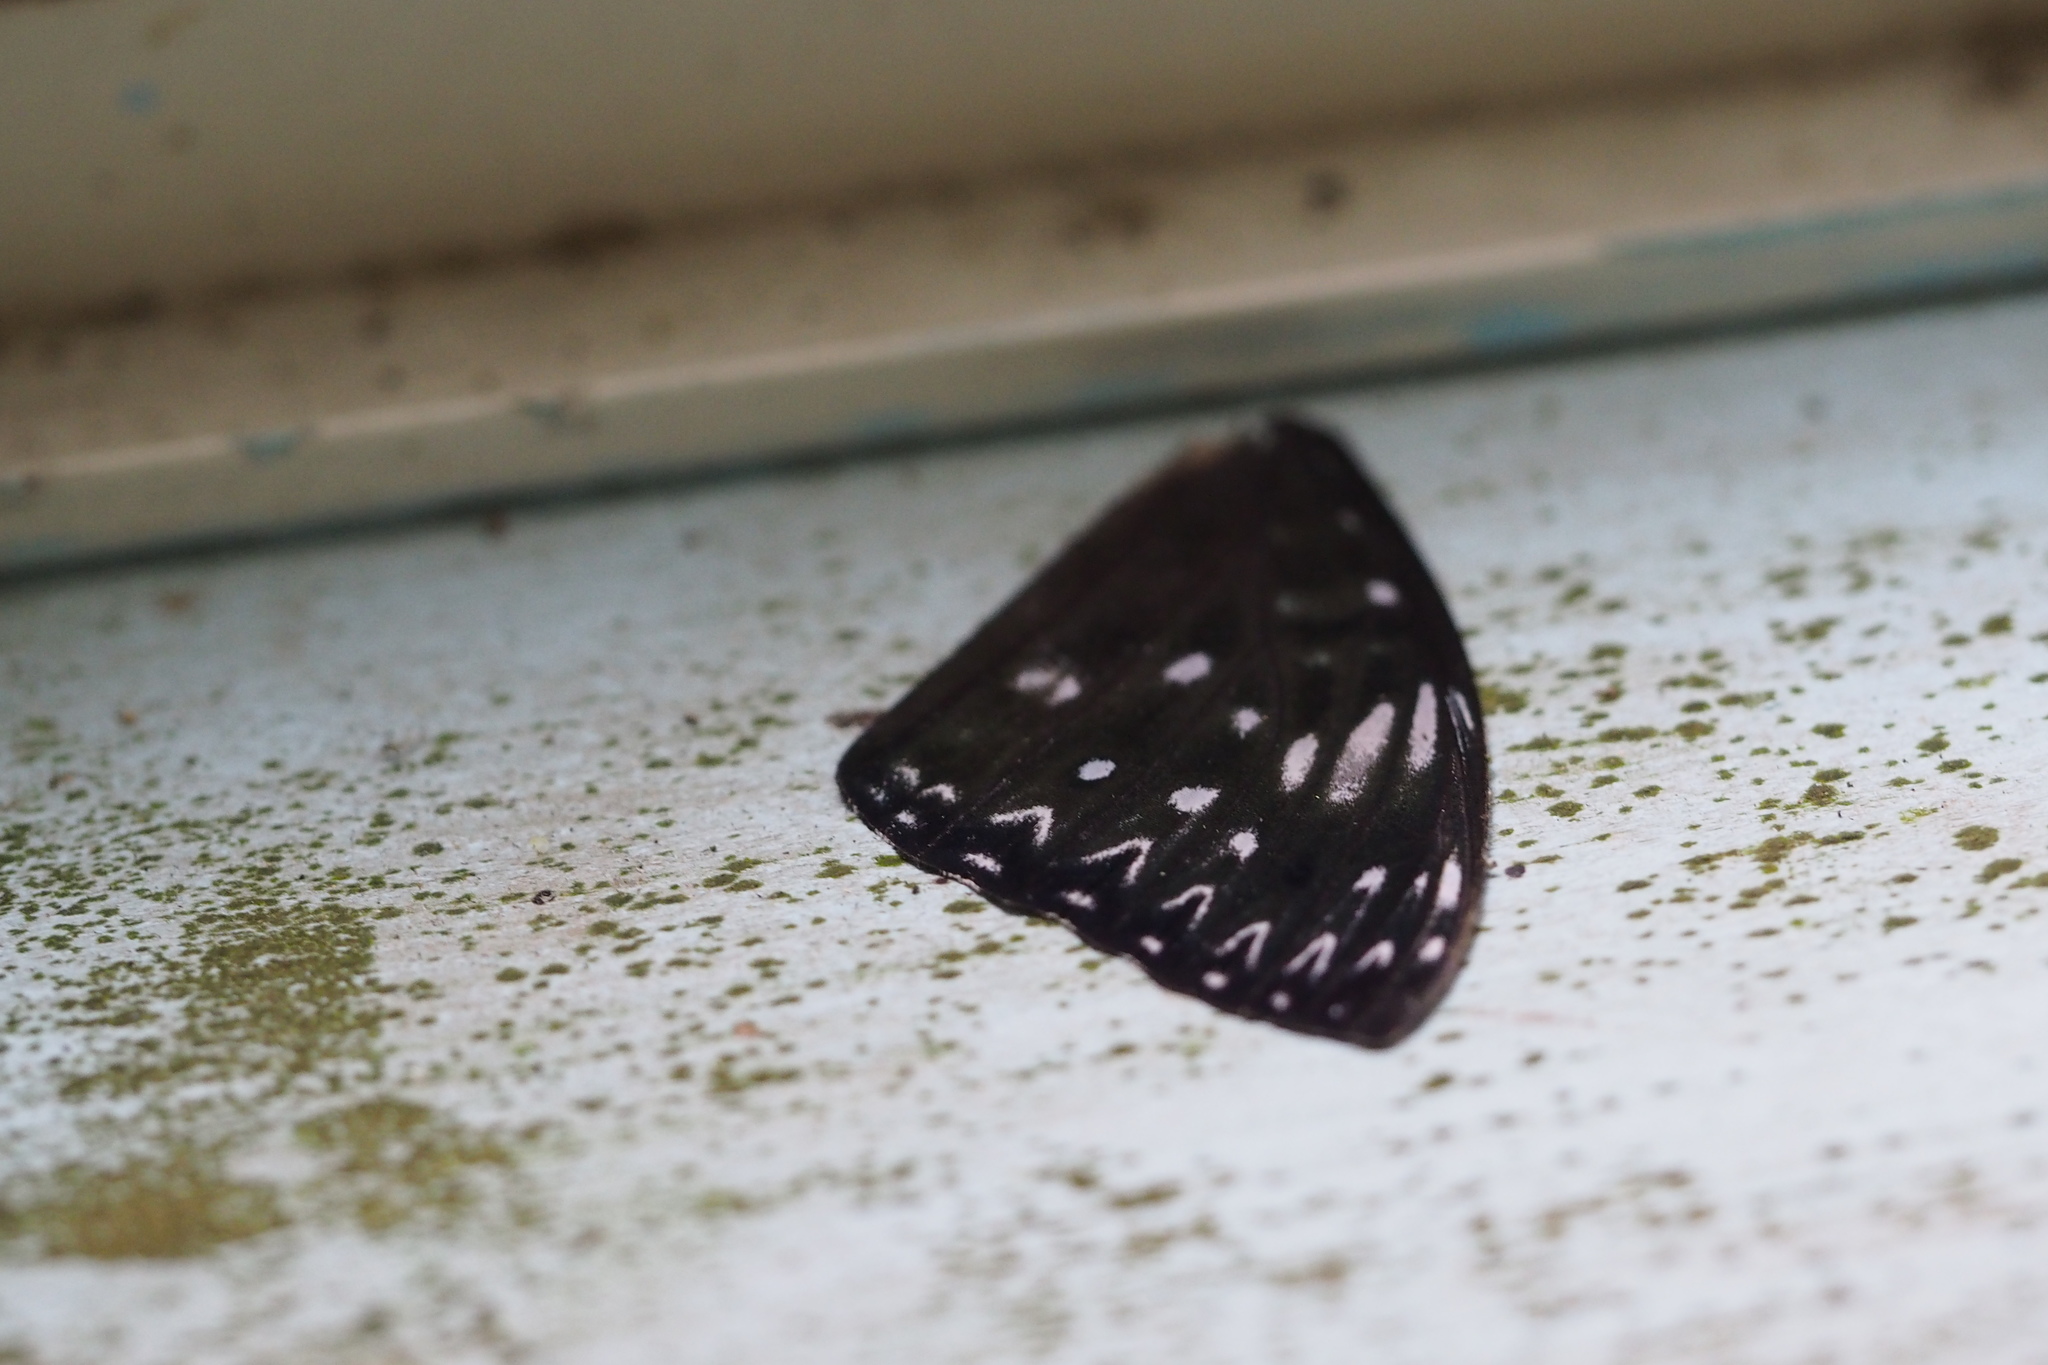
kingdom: Animalia
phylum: Arthropoda
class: Insecta
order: Lepidoptera
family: Nymphalidae
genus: Dichorragia
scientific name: Dichorragia nesimachus
